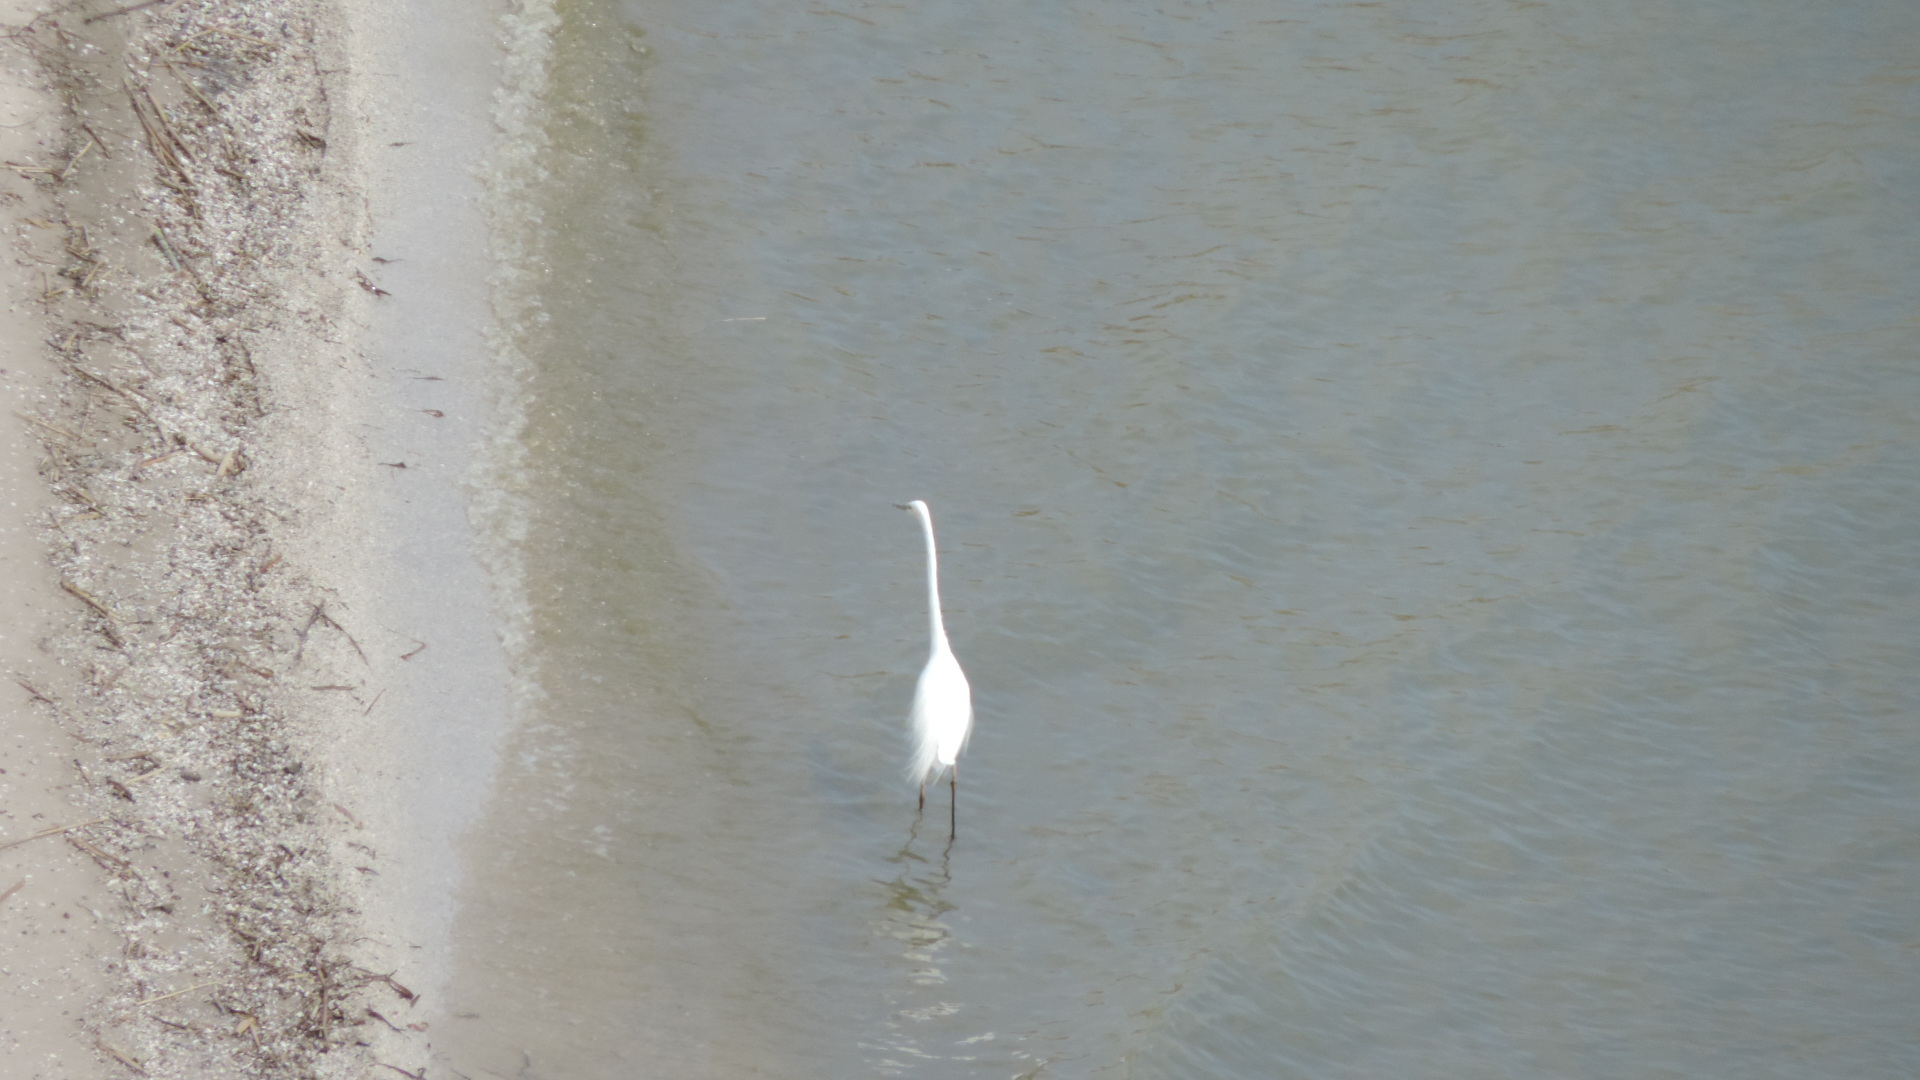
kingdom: Animalia
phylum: Chordata
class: Aves
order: Pelecaniformes
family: Ardeidae
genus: Ardea
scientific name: Ardea alba
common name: Great egret
